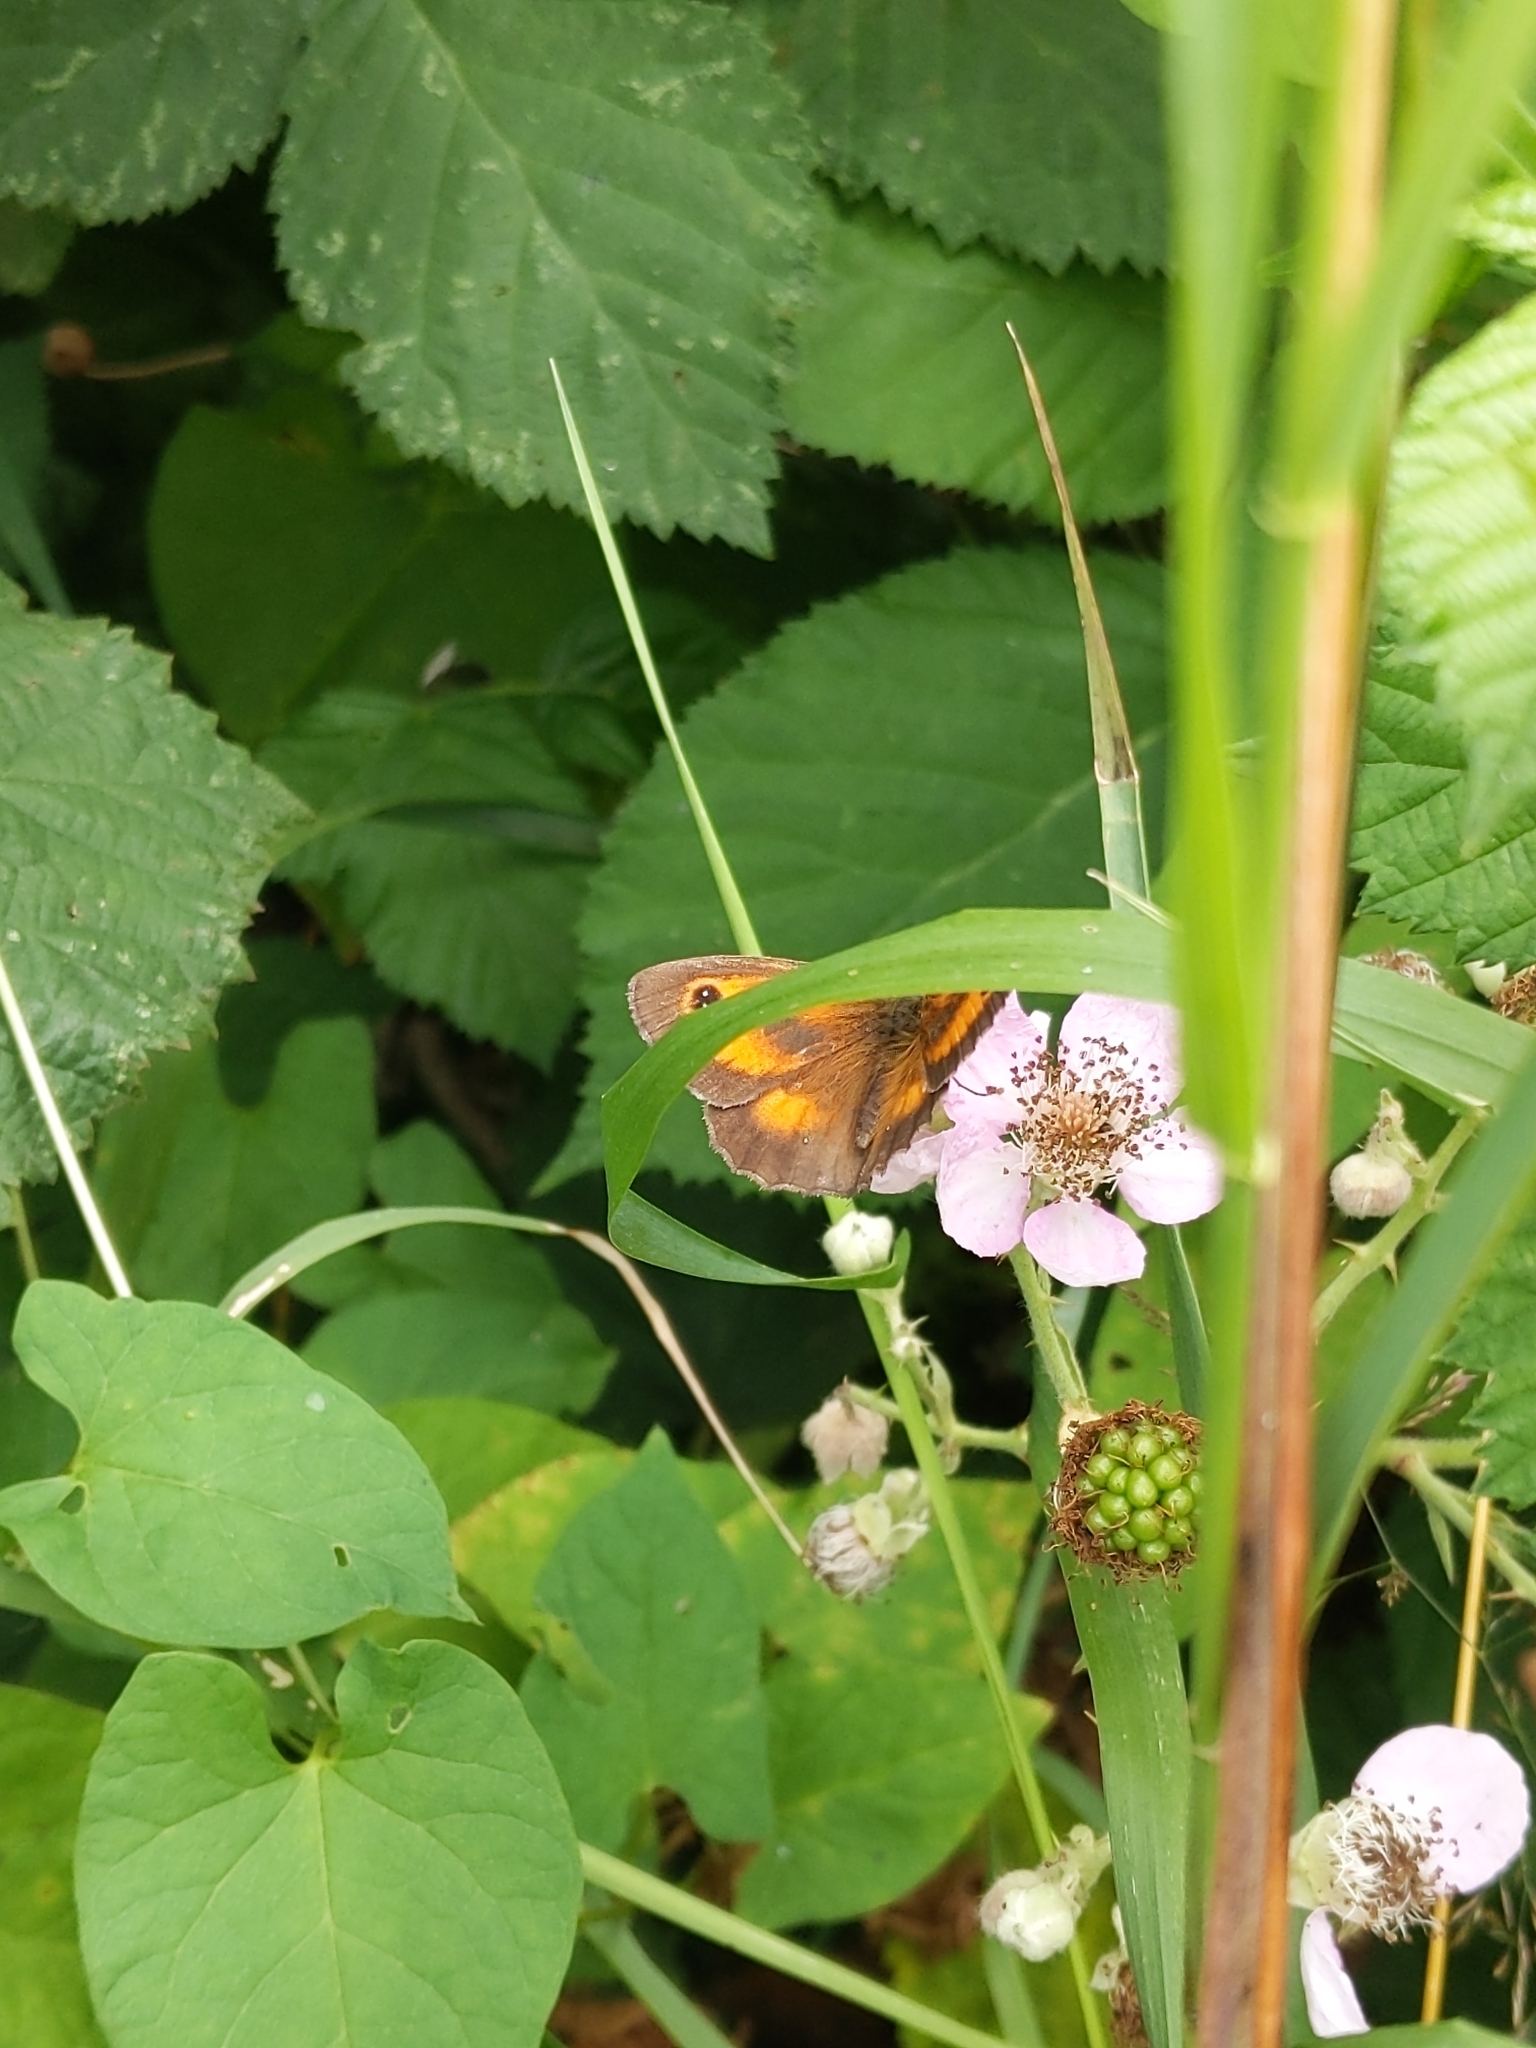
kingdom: Animalia
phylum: Arthropoda
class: Insecta
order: Lepidoptera
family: Nymphalidae
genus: Pyronia
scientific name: Pyronia tithonus
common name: Gatekeeper
